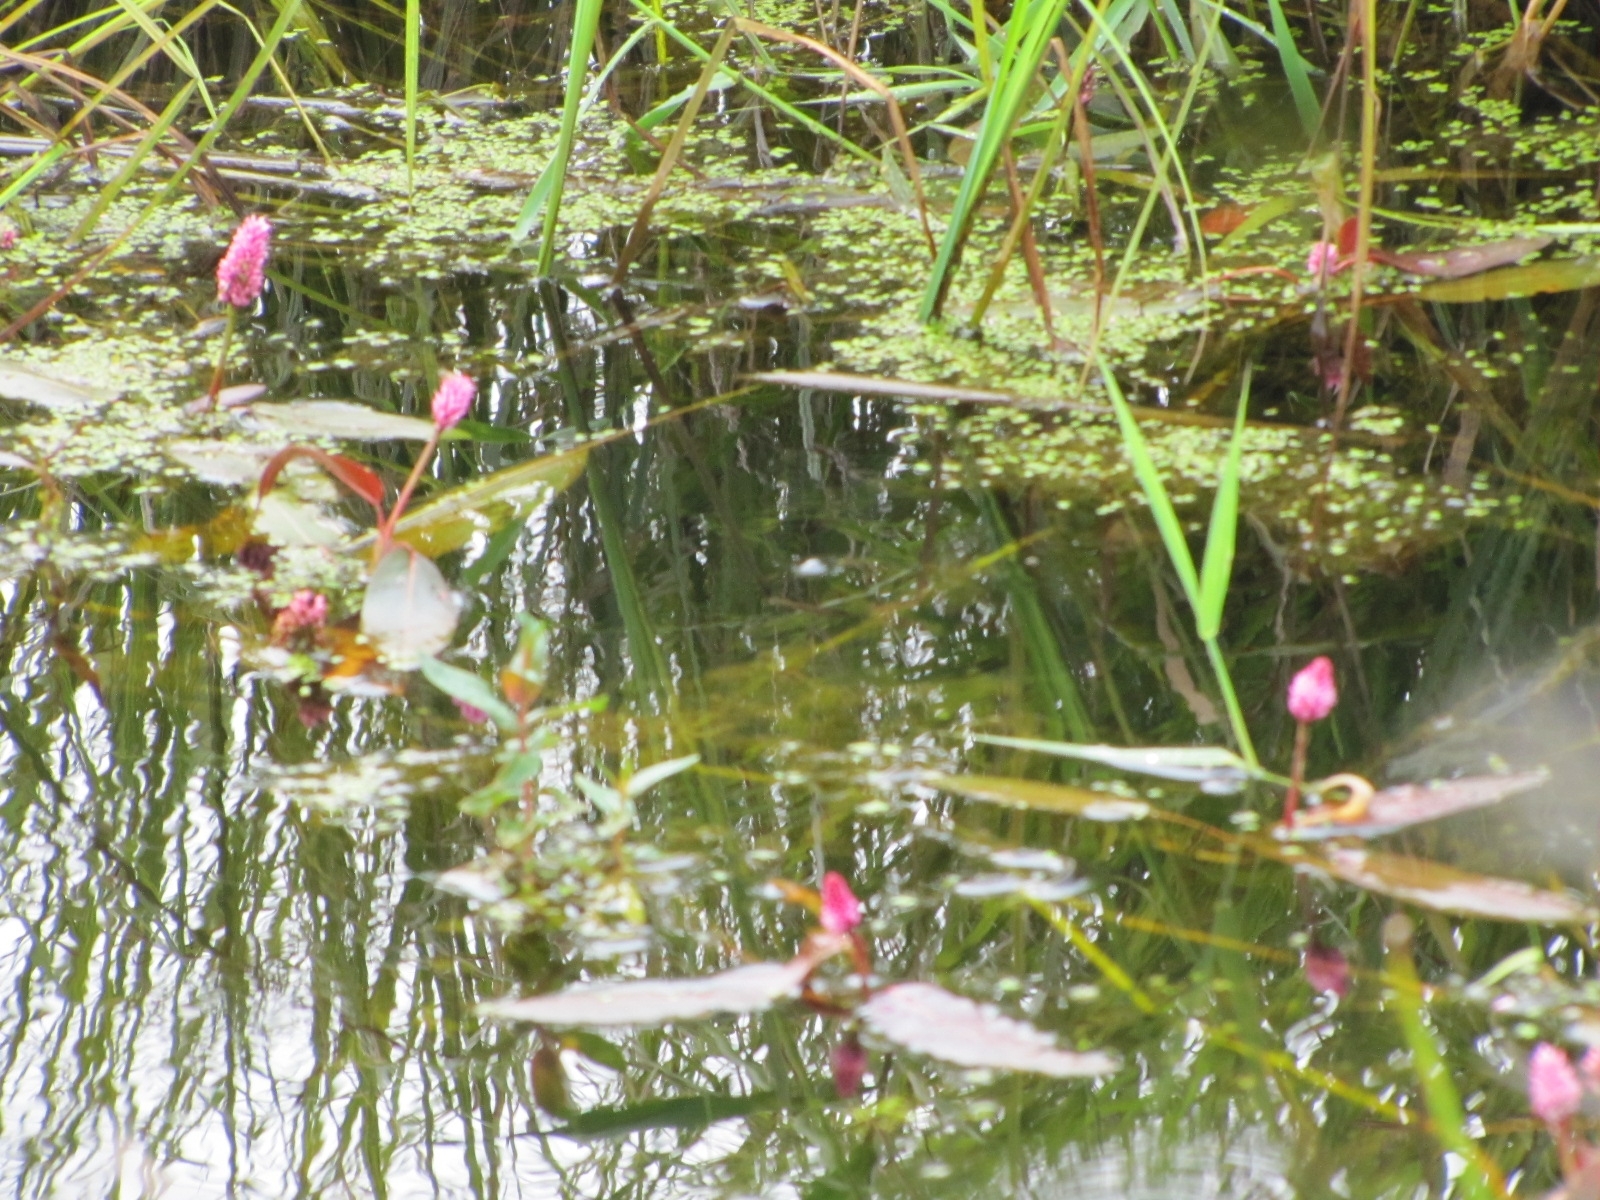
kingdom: Plantae
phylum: Tracheophyta
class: Magnoliopsida
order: Caryophyllales
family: Polygonaceae
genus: Persicaria
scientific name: Persicaria amphibia
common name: Amphibious bistort
